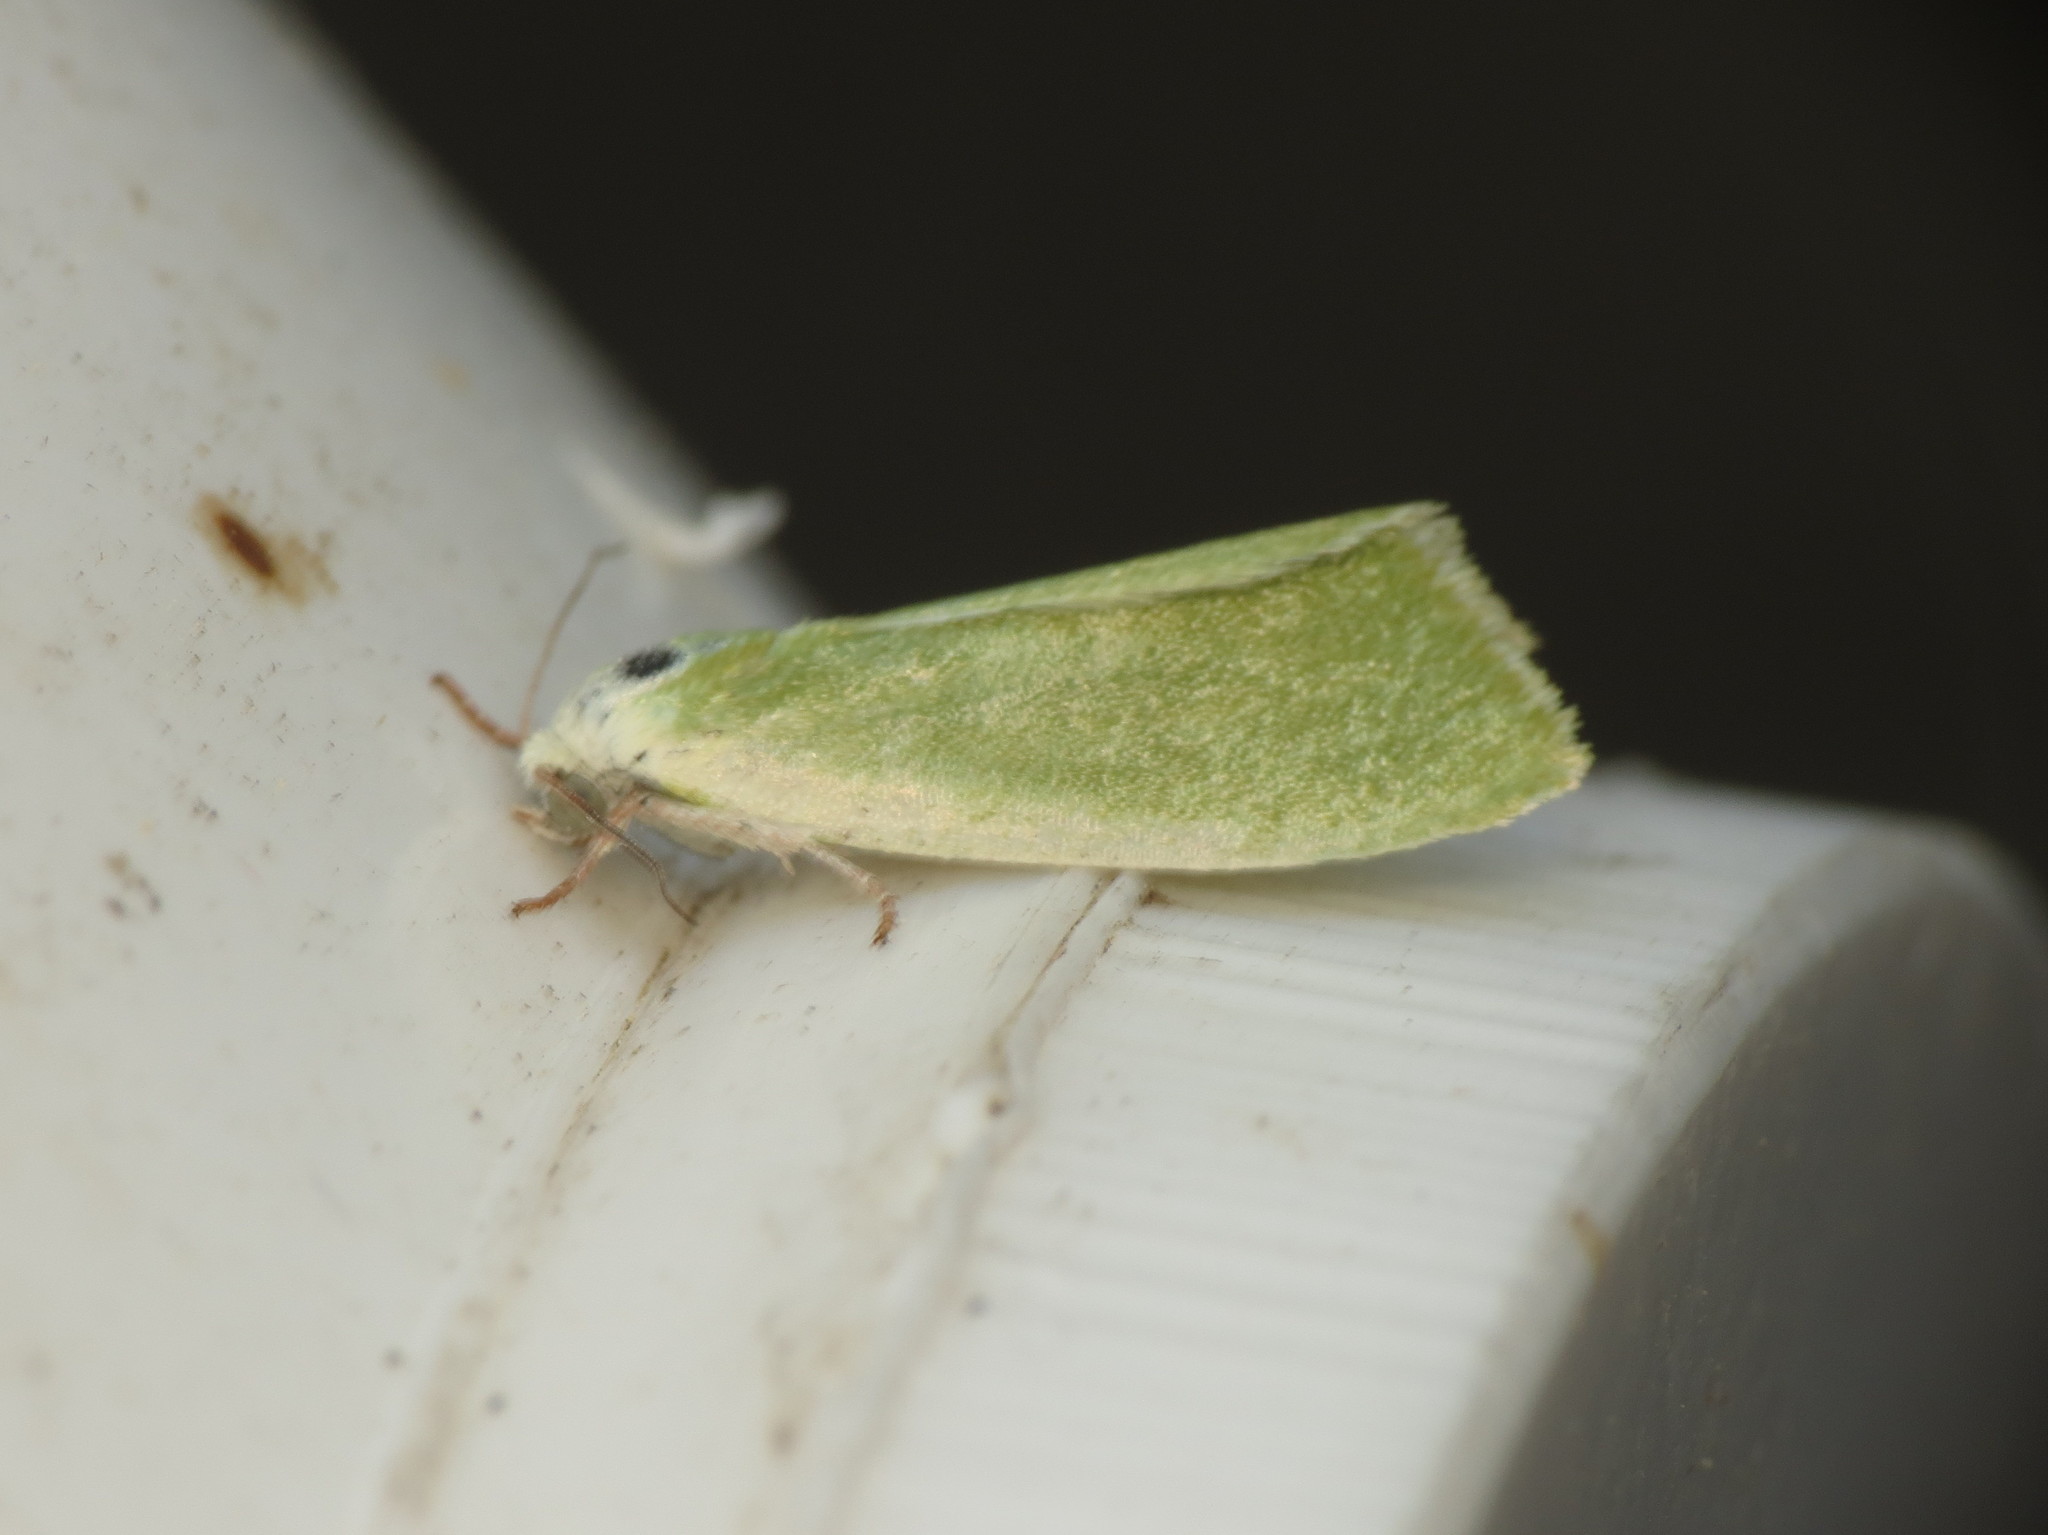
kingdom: Animalia
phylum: Arthropoda
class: Insecta
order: Lepidoptera
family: Nolidae
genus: Earias
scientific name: Earias clorana
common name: Cream-bordered green pea
